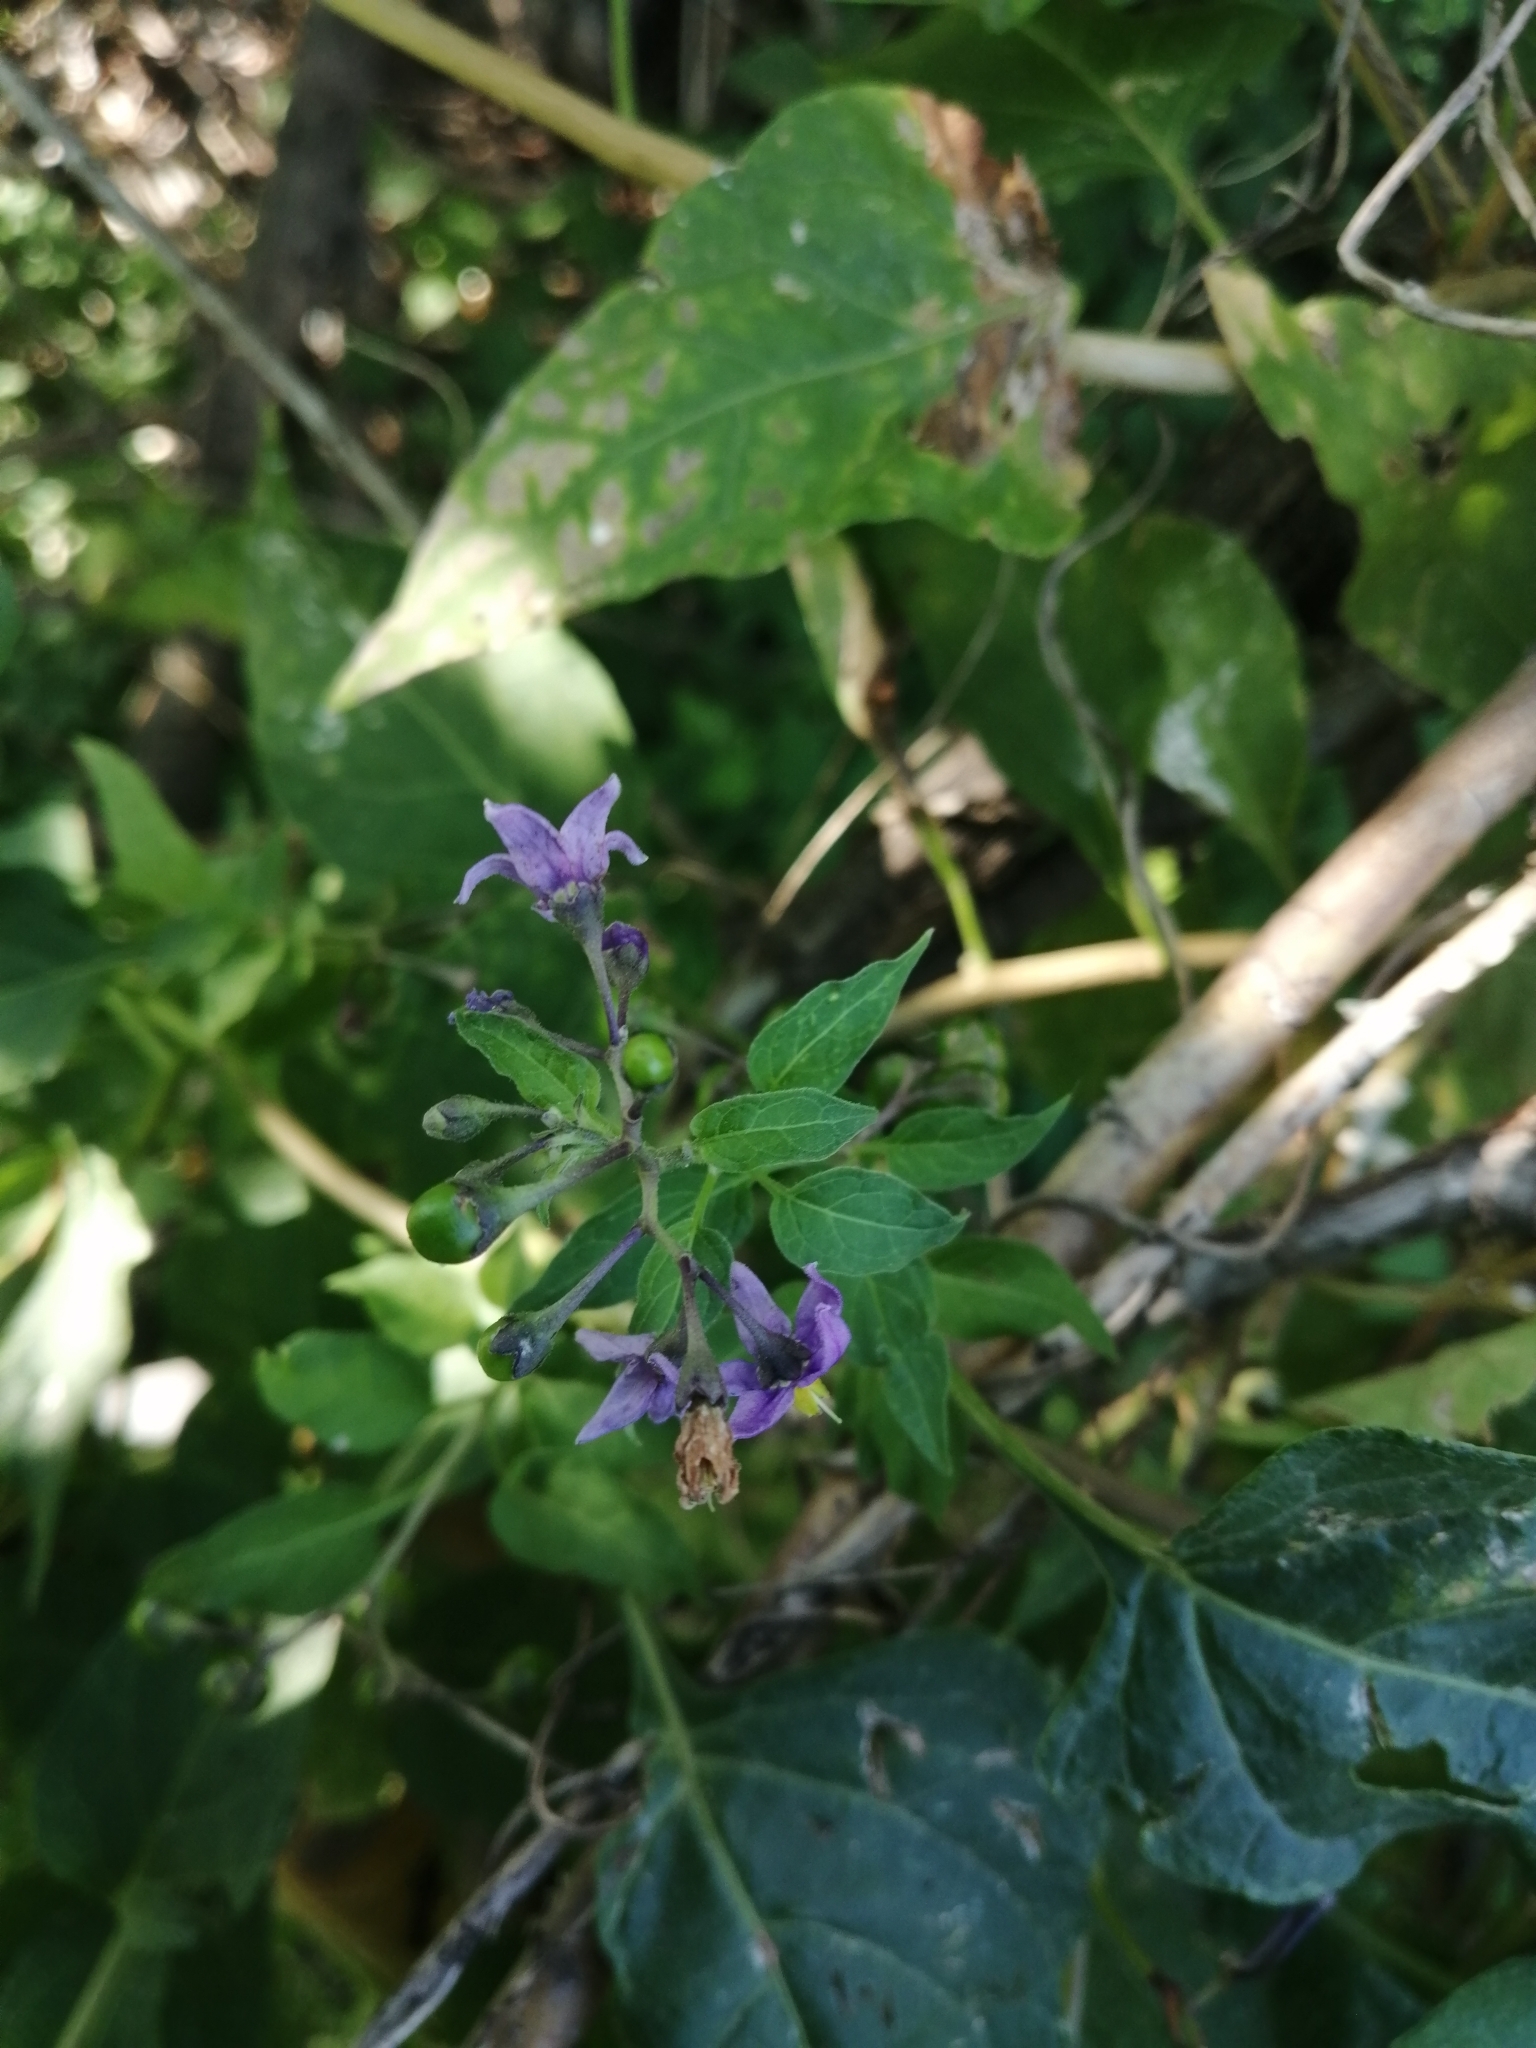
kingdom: Plantae
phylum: Tracheophyta
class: Magnoliopsida
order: Solanales
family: Solanaceae
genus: Solanum
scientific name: Solanum dulcamara
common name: Climbing nightshade
